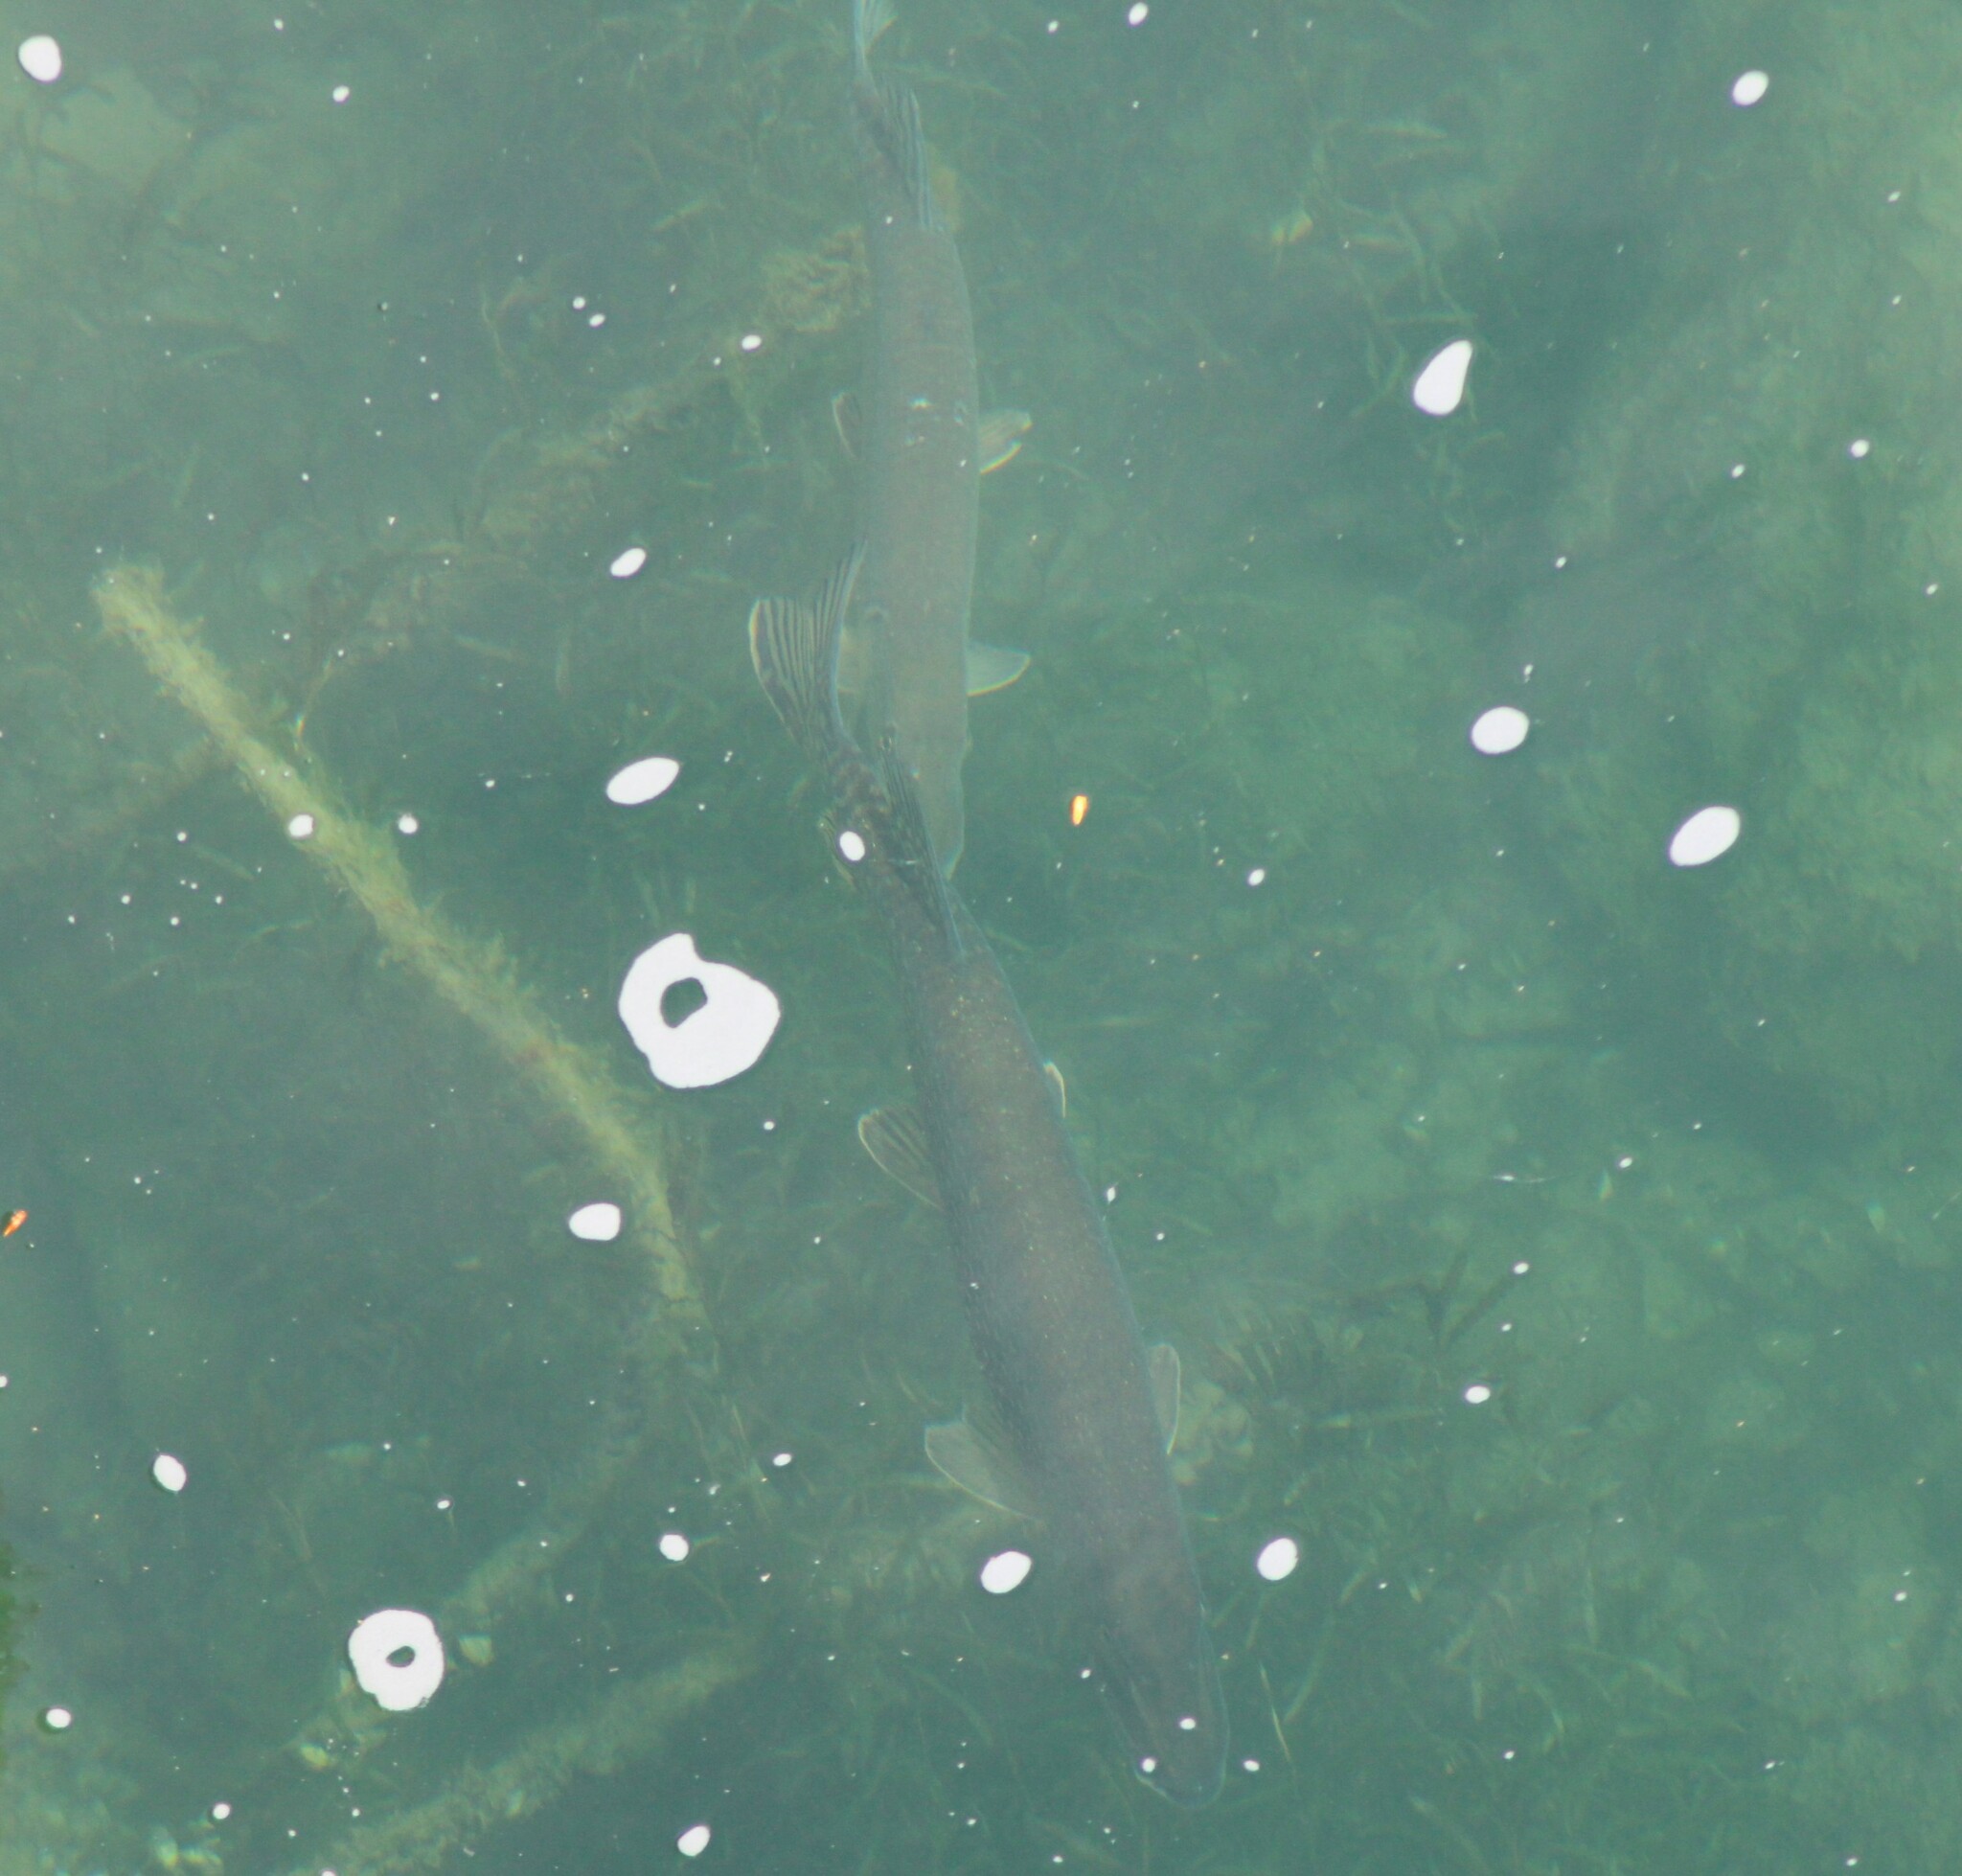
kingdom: Animalia
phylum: Chordata
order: Esociformes
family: Esocidae
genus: Esox
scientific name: Esox lucius
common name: Northern pike
